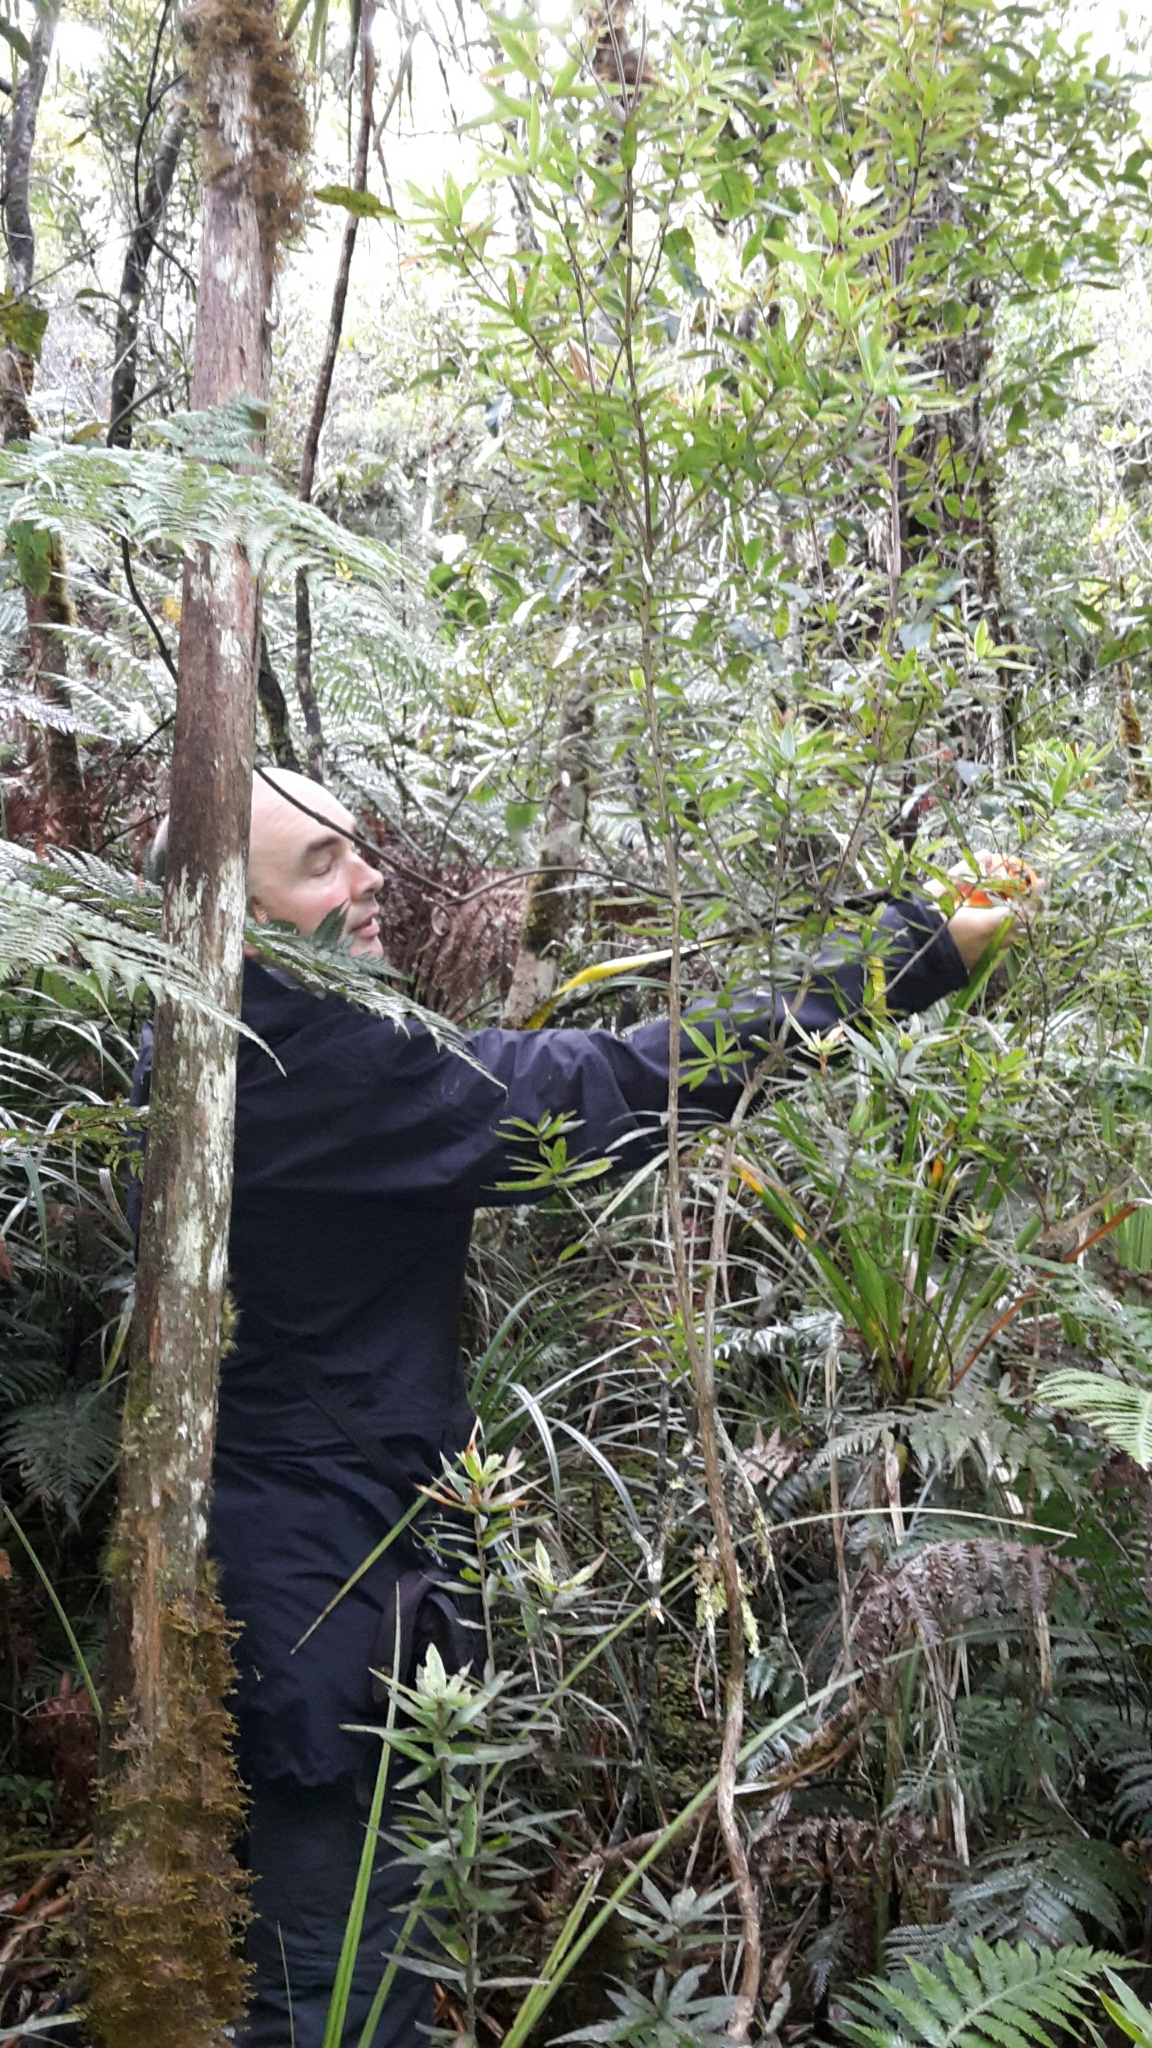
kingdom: Plantae
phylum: Tracheophyta
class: Polypodiopsida
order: Polypodiales
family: Blechnaceae
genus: Diploblechnum
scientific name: Diploblechnum fraseri
